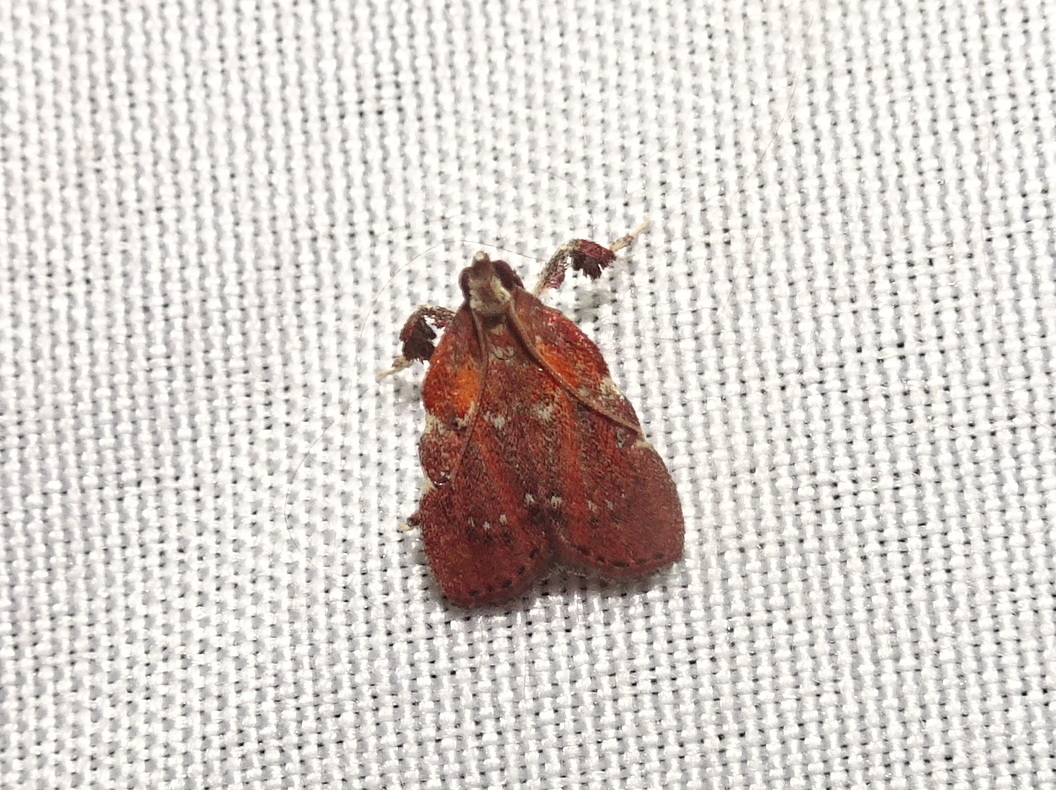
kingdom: Animalia
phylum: Arthropoda
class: Insecta
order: Lepidoptera
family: Pyralidae
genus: Galasa
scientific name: Galasa nigrinodis
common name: Boxwood leaftier moth
